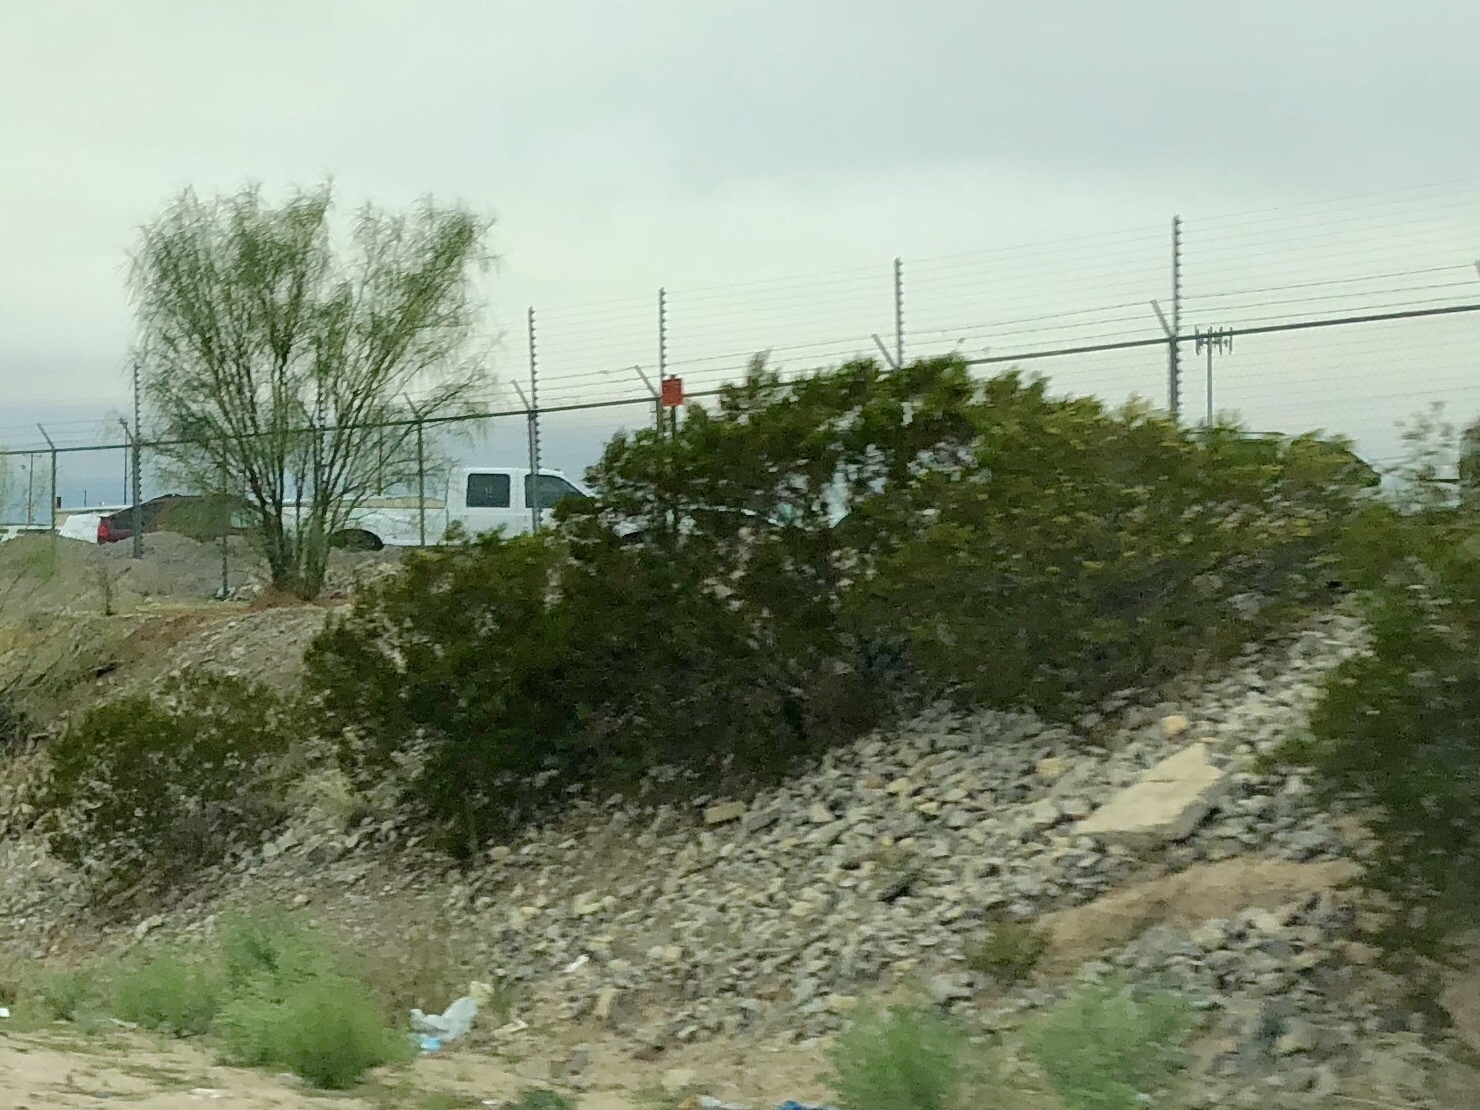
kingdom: Plantae
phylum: Tracheophyta
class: Magnoliopsida
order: Zygophyllales
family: Zygophyllaceae
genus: Larrea
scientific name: Larrea tridentata
